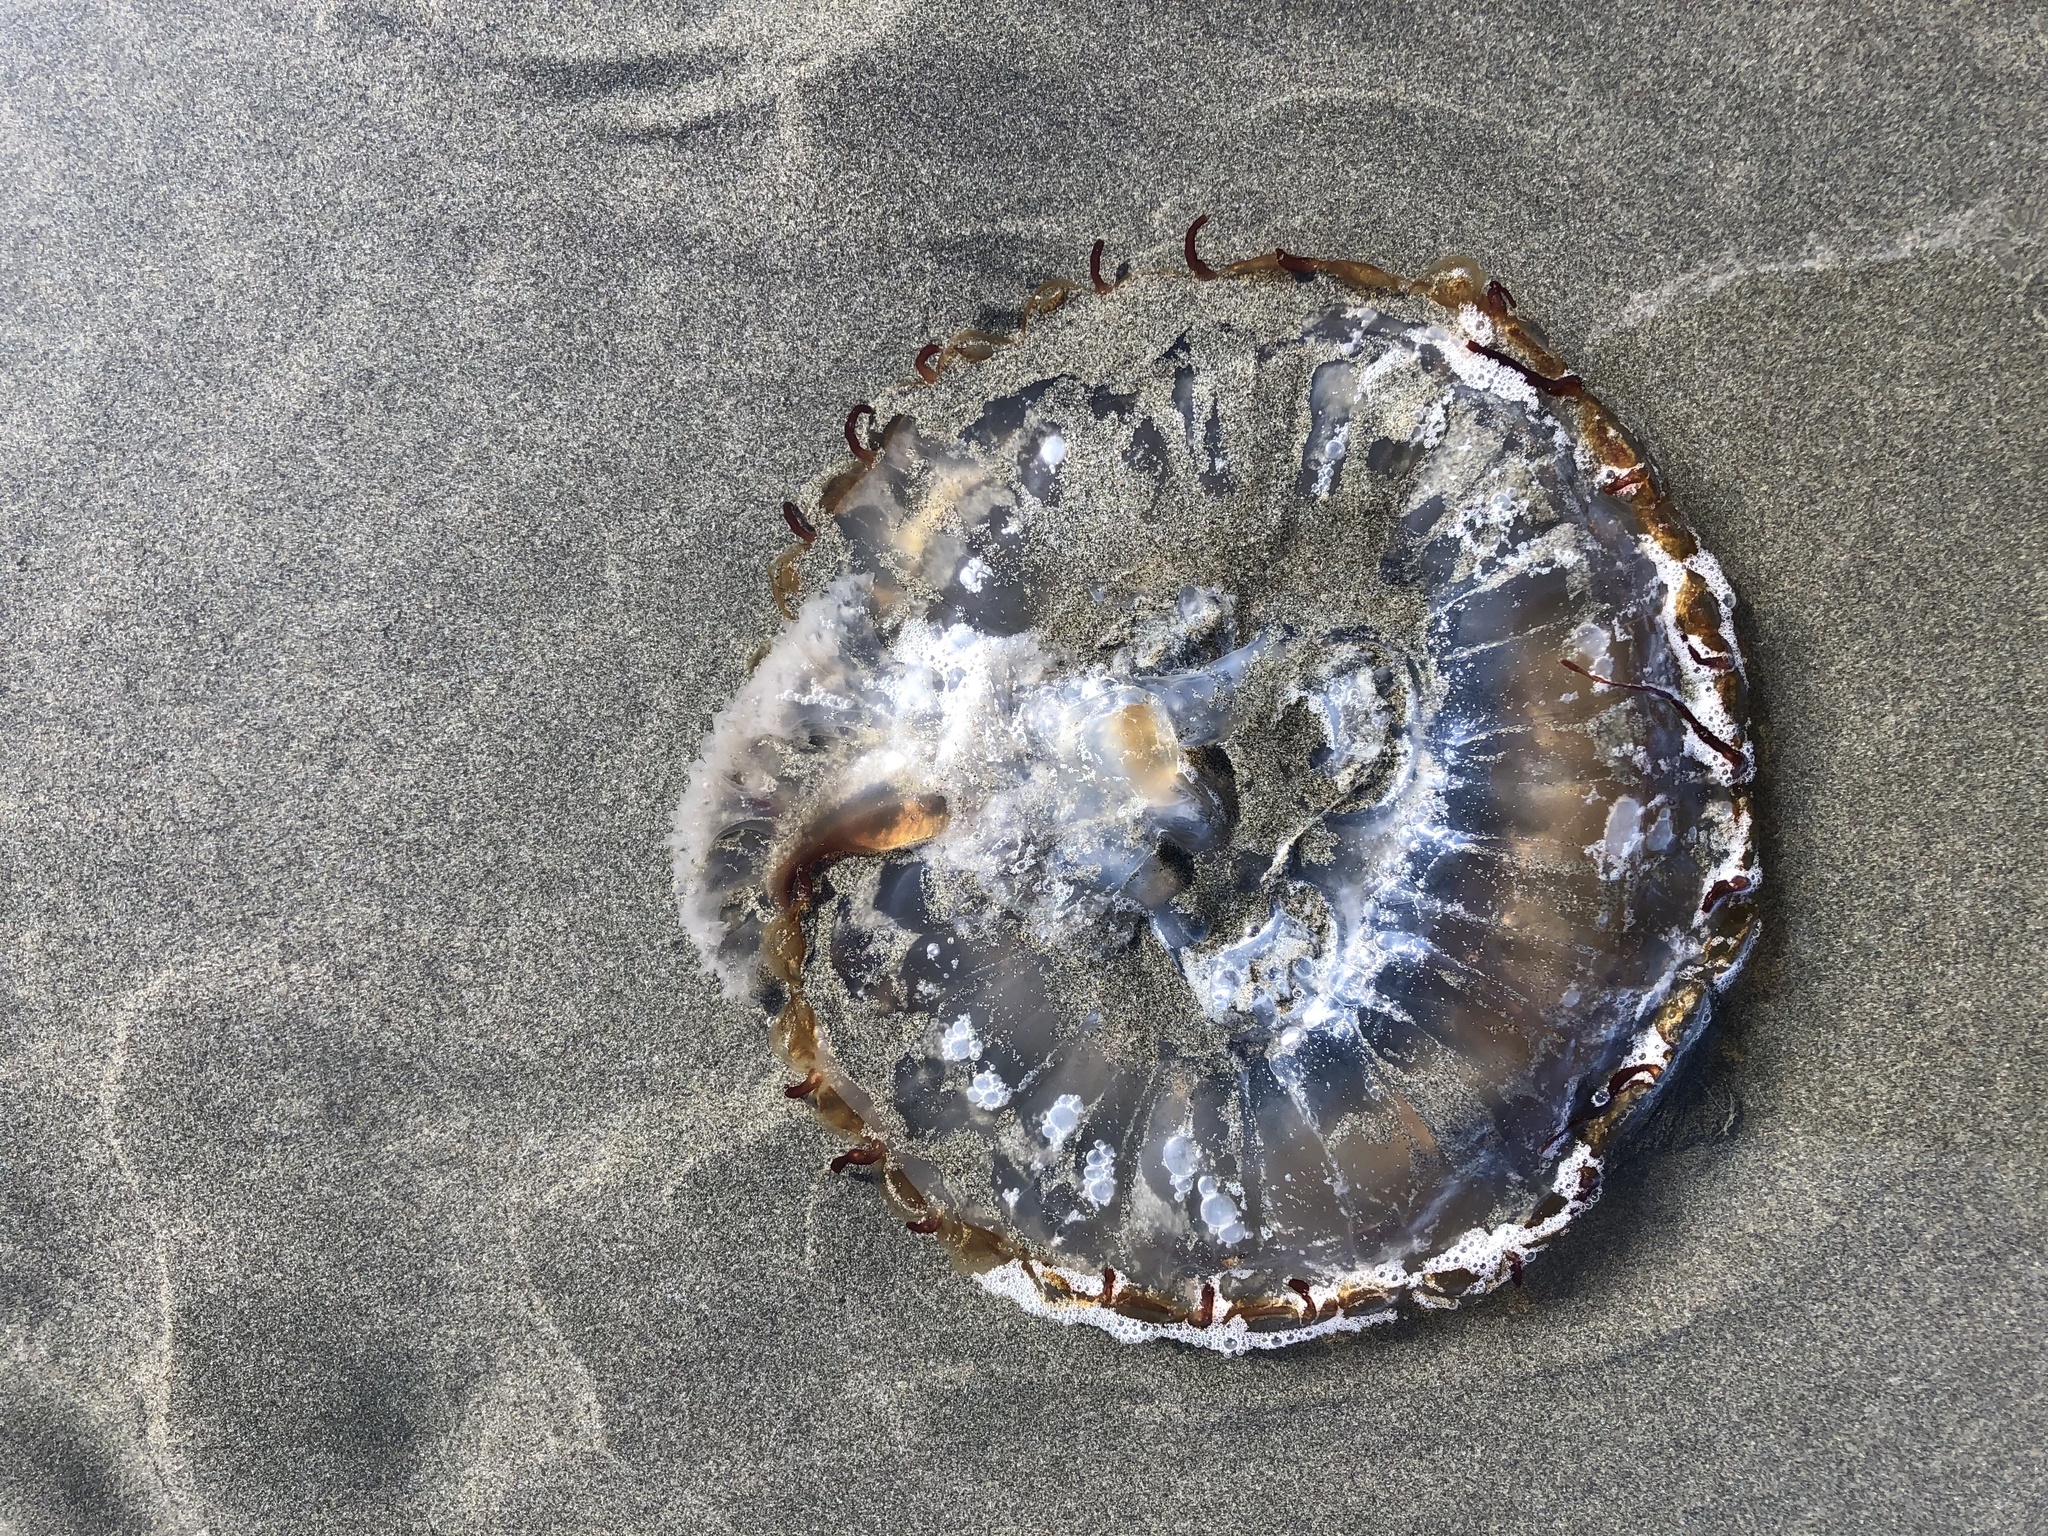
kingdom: Animalia
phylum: Cnidaria
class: Scyphozoa
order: Semaeostomeae
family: Pelagiidae
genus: Chrysaora
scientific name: Chrysaora fuscescens
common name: Sea nettle
